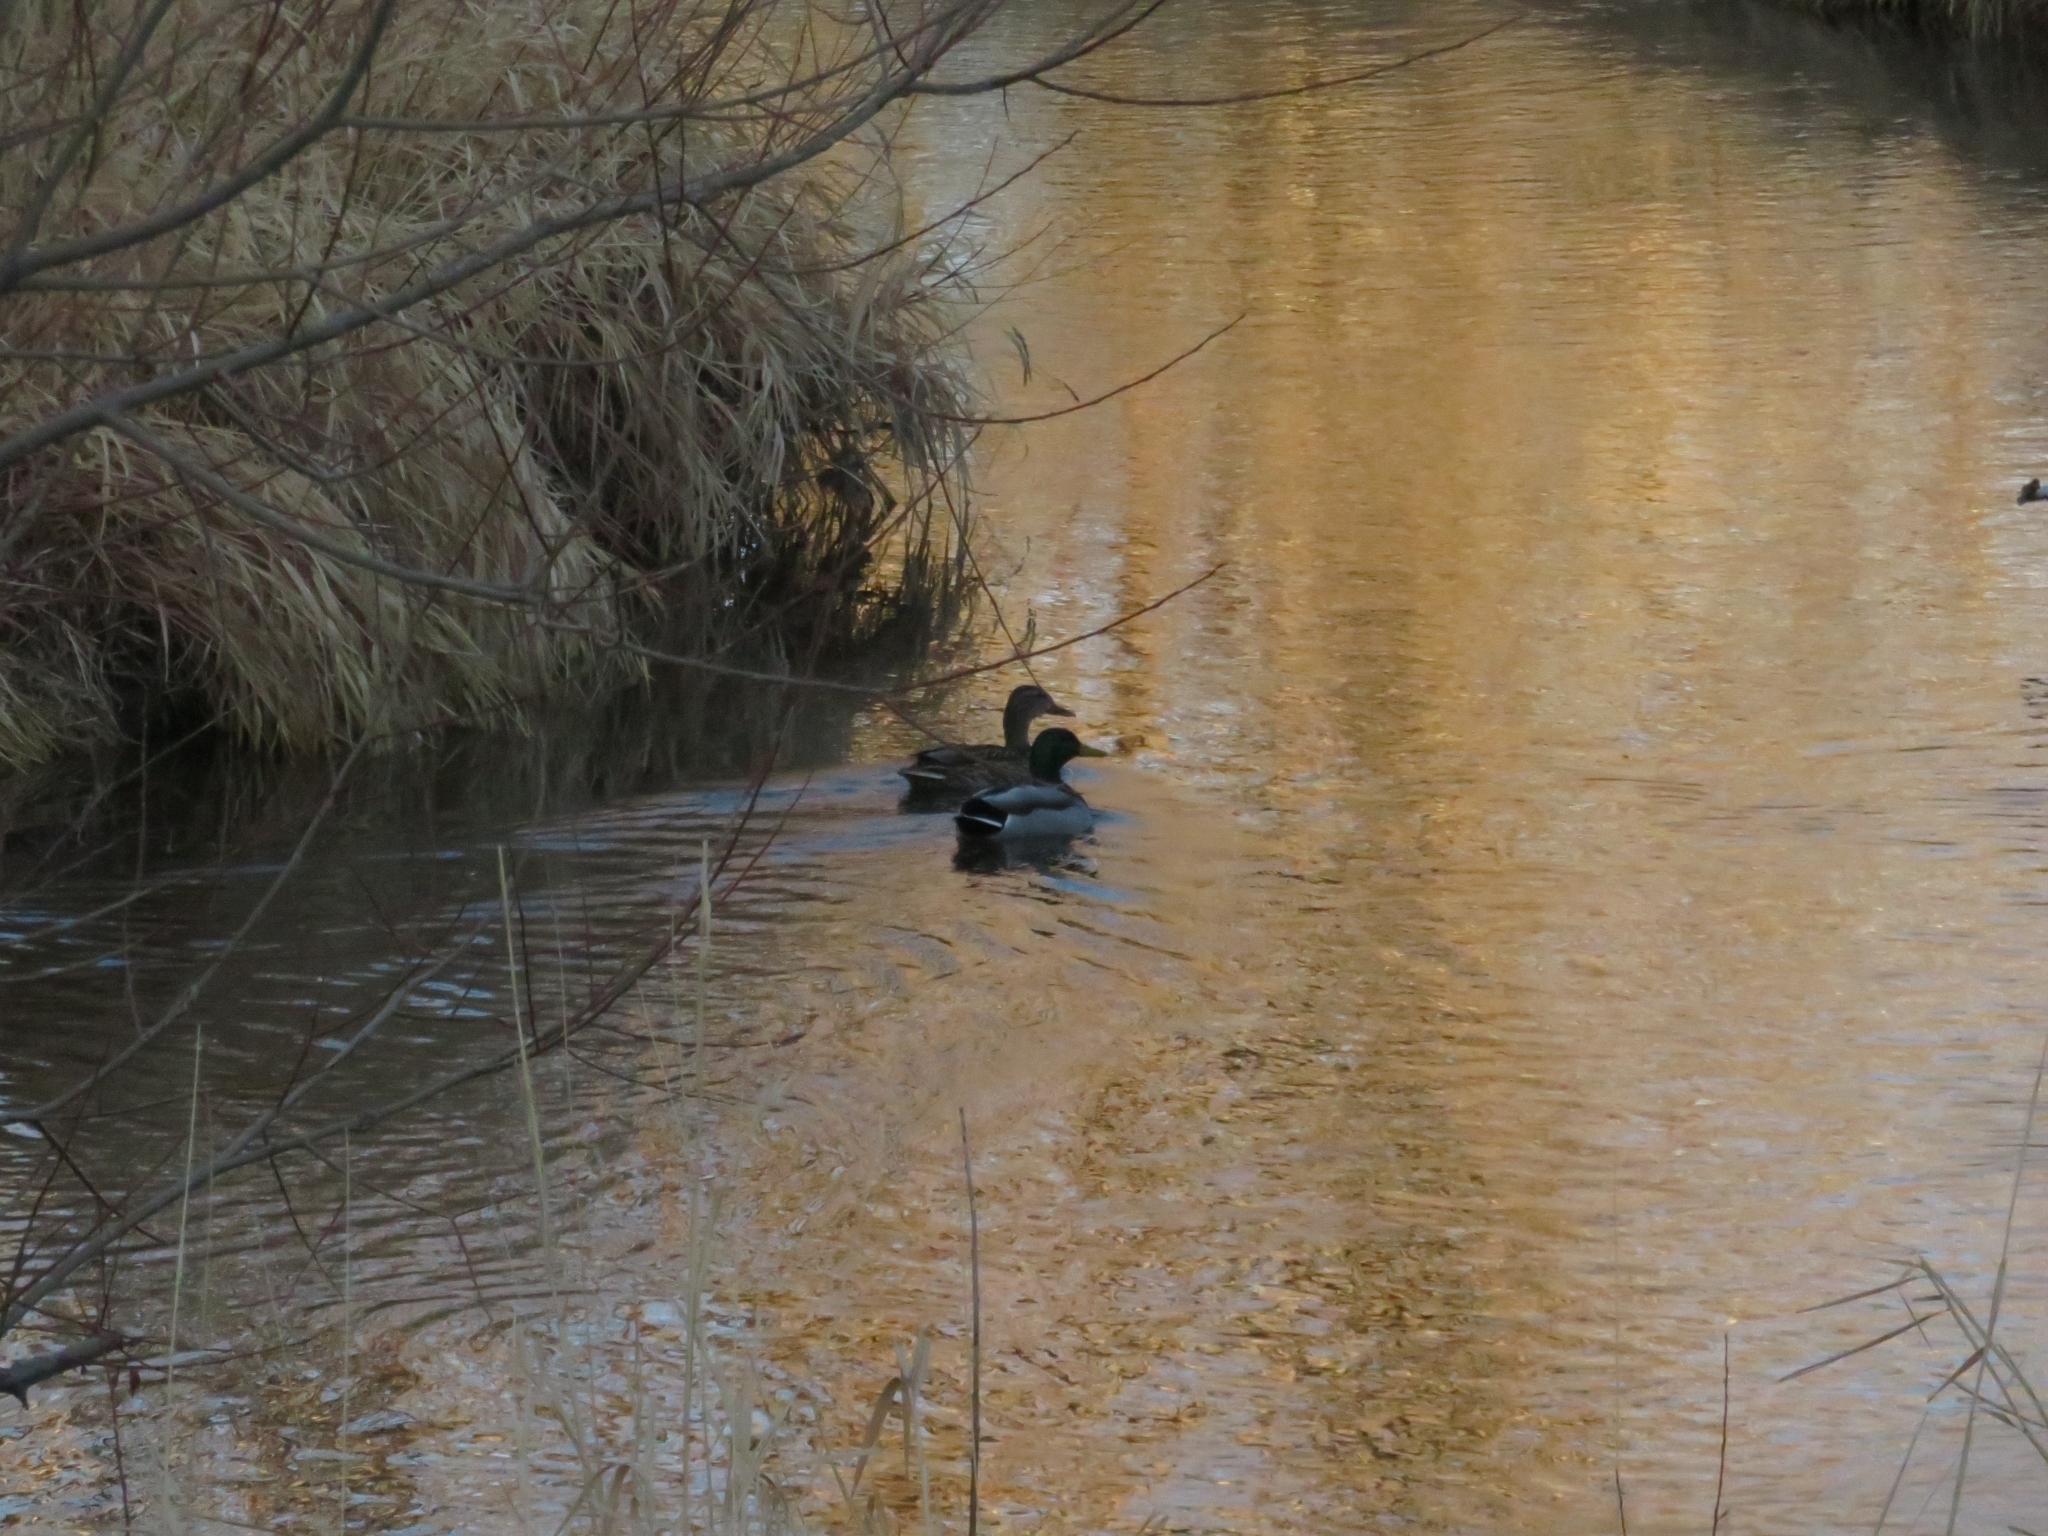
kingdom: Animalia
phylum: Chordata
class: Aves
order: Anseriformes
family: Anatidae
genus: Anas
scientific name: Anas platyrhynchos
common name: Mallard
